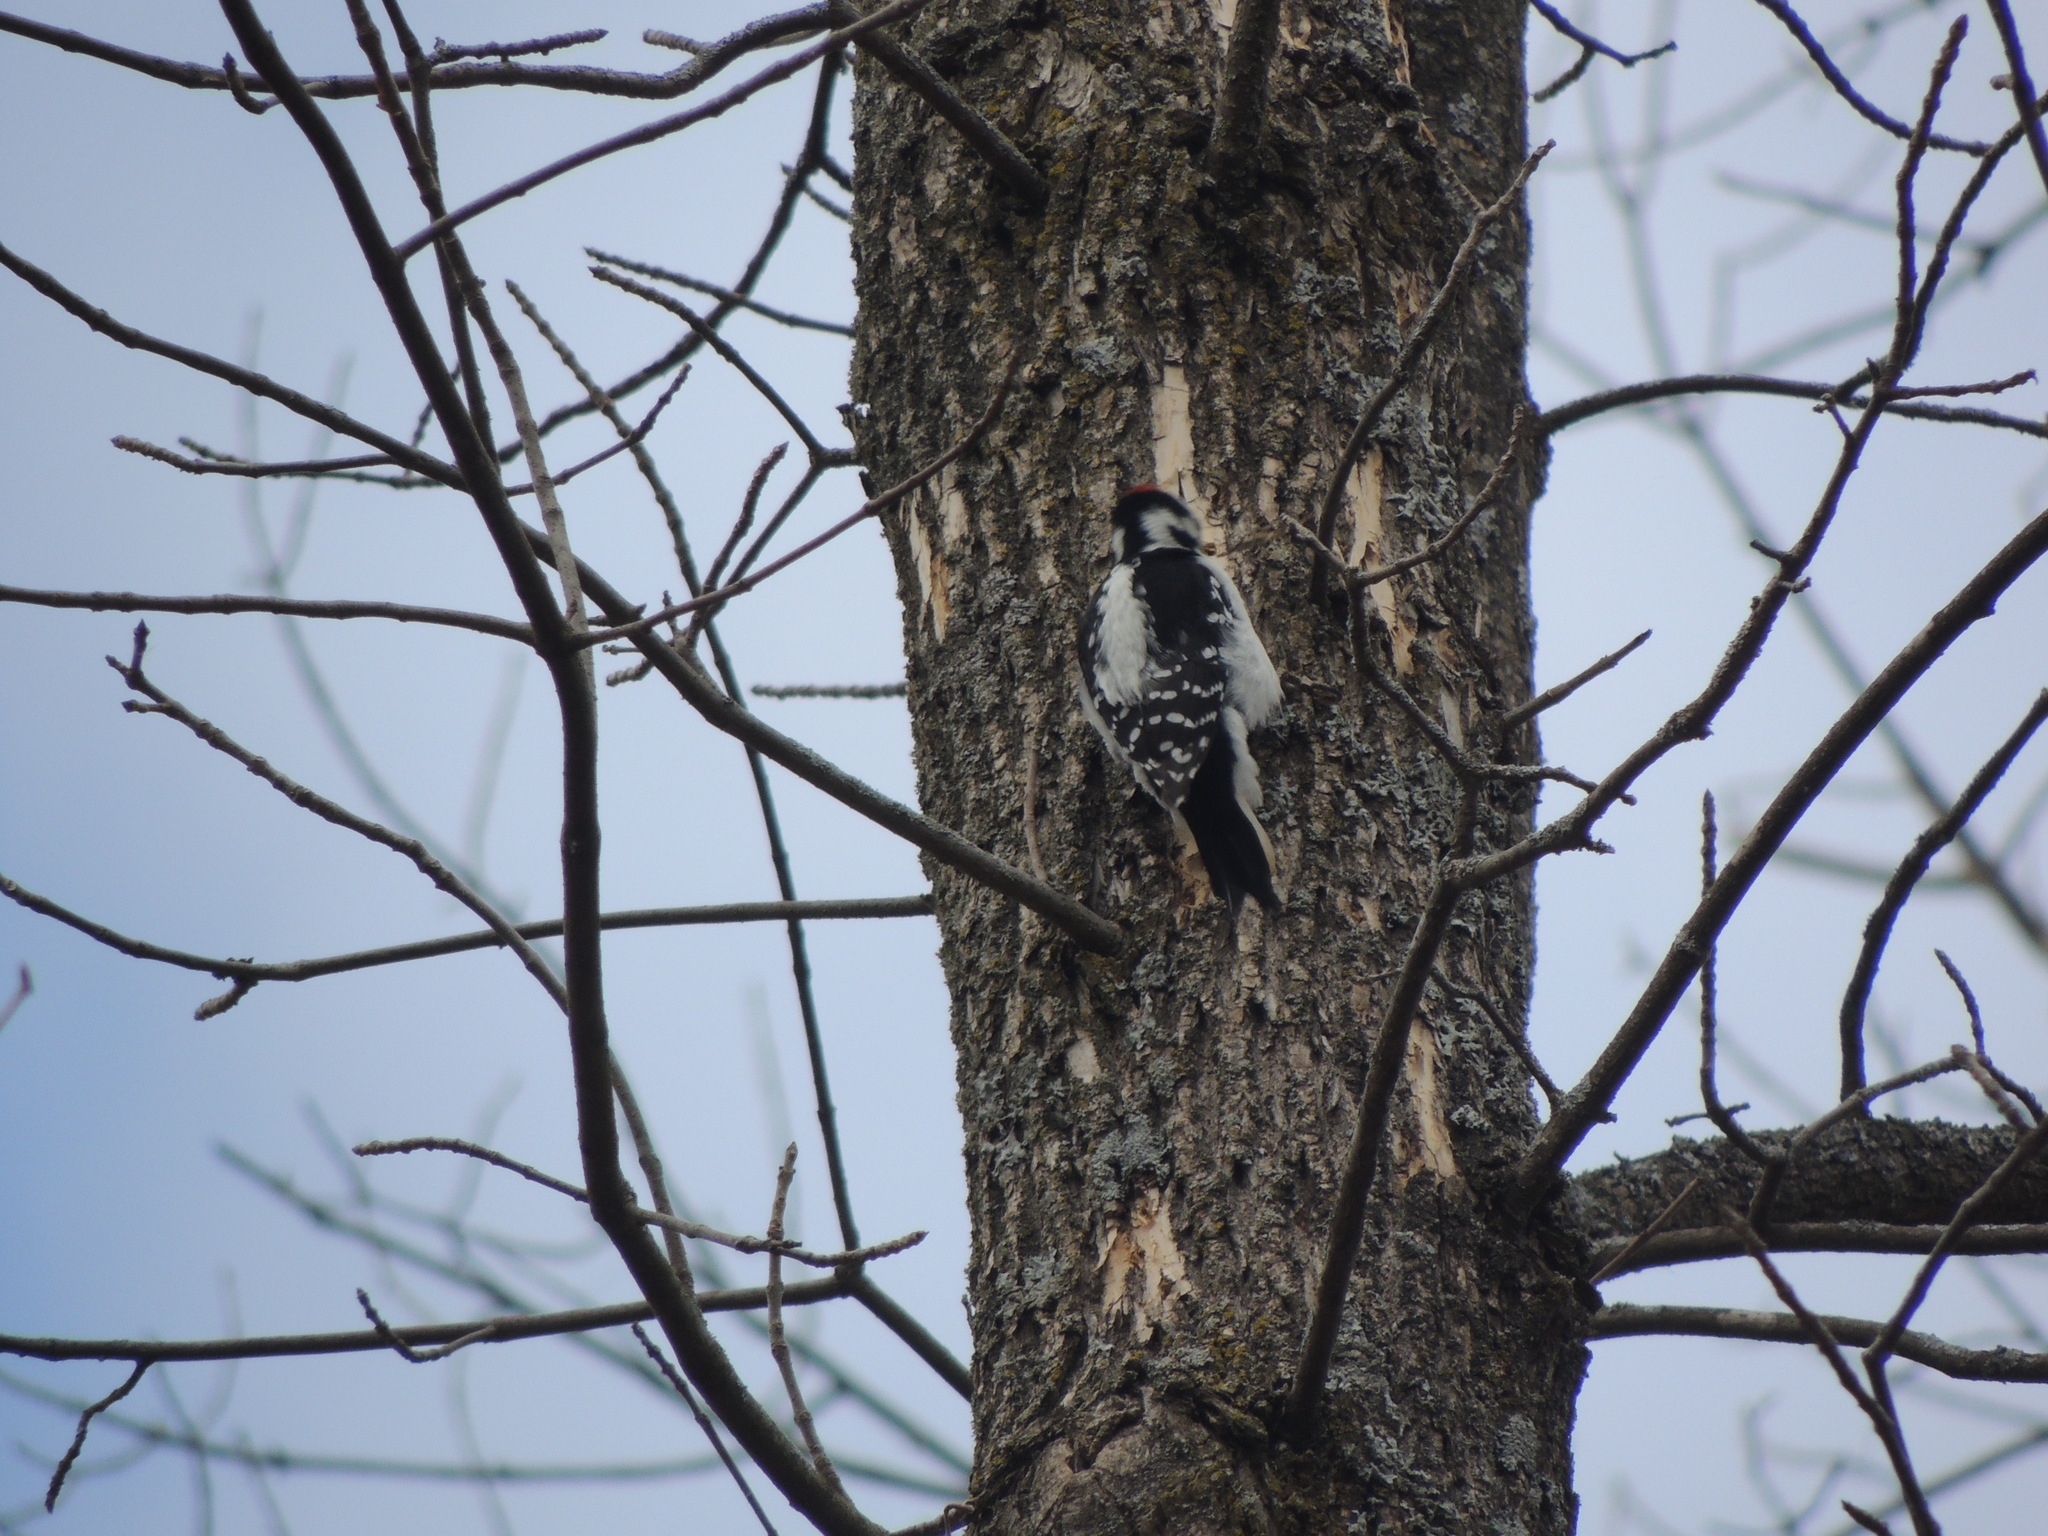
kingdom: Animalia
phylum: Chordata
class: Aves
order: Piciformes
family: Picidae
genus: Leuconotopicus
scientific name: Leuconotopicus villosus
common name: Hairy woodpecker
